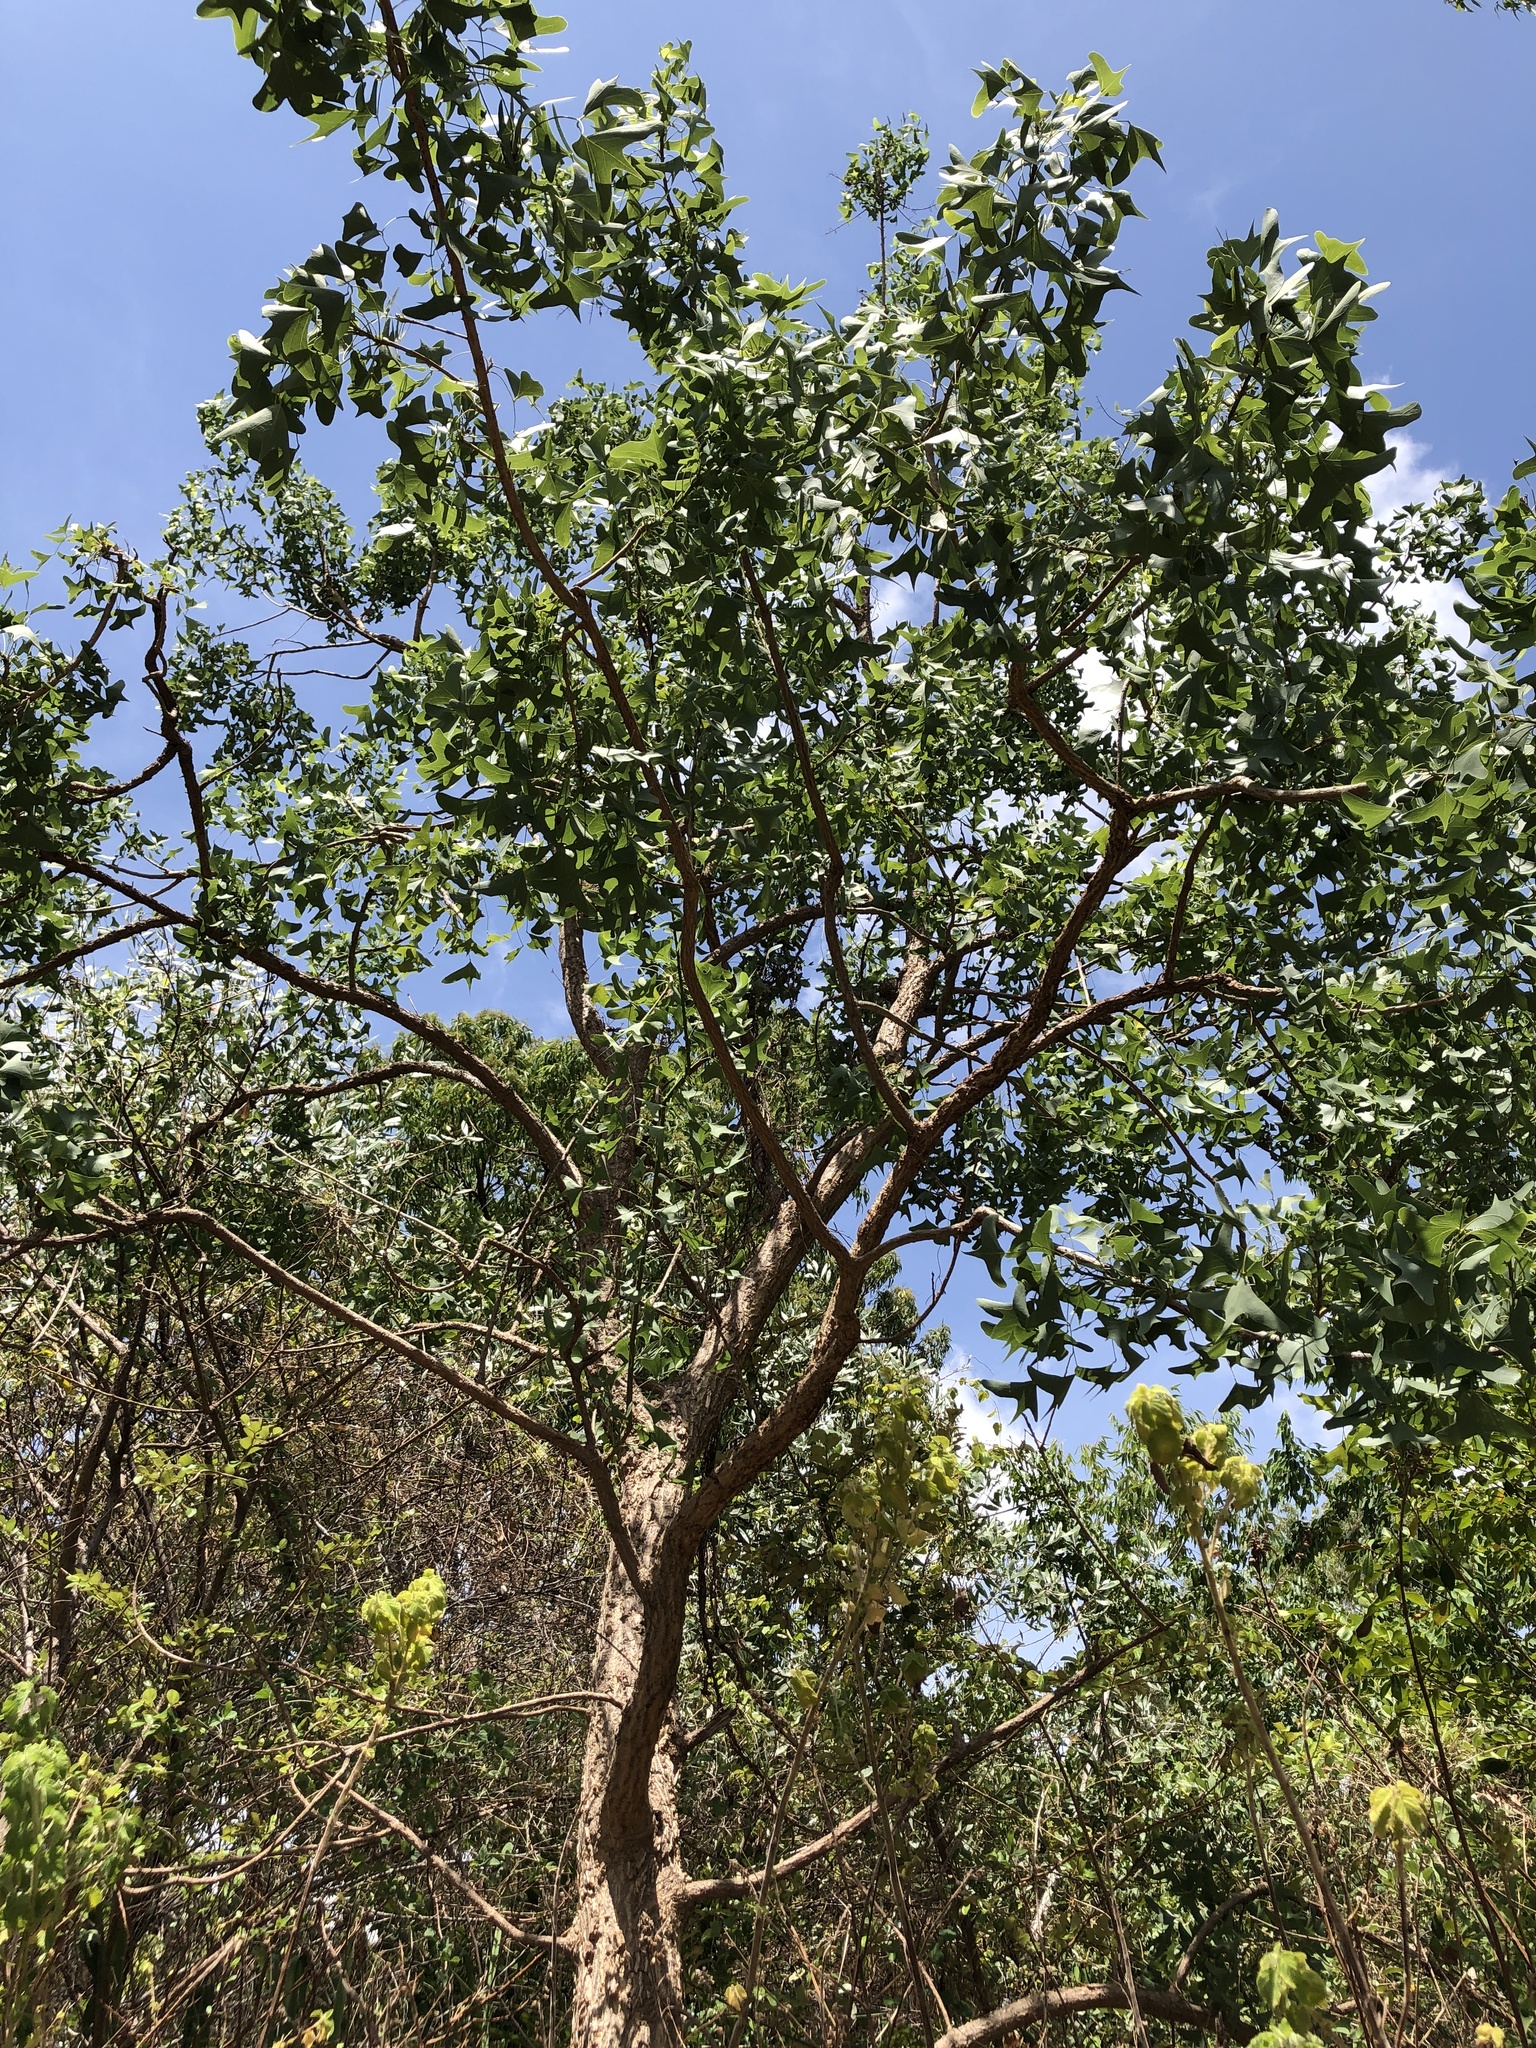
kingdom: Plantae
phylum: Tracheophyta
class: Magnoliopsida
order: Fabales
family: Fabaceae
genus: Erythrina
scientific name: Erythrina vespertilio
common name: Bat-wing coral tree
